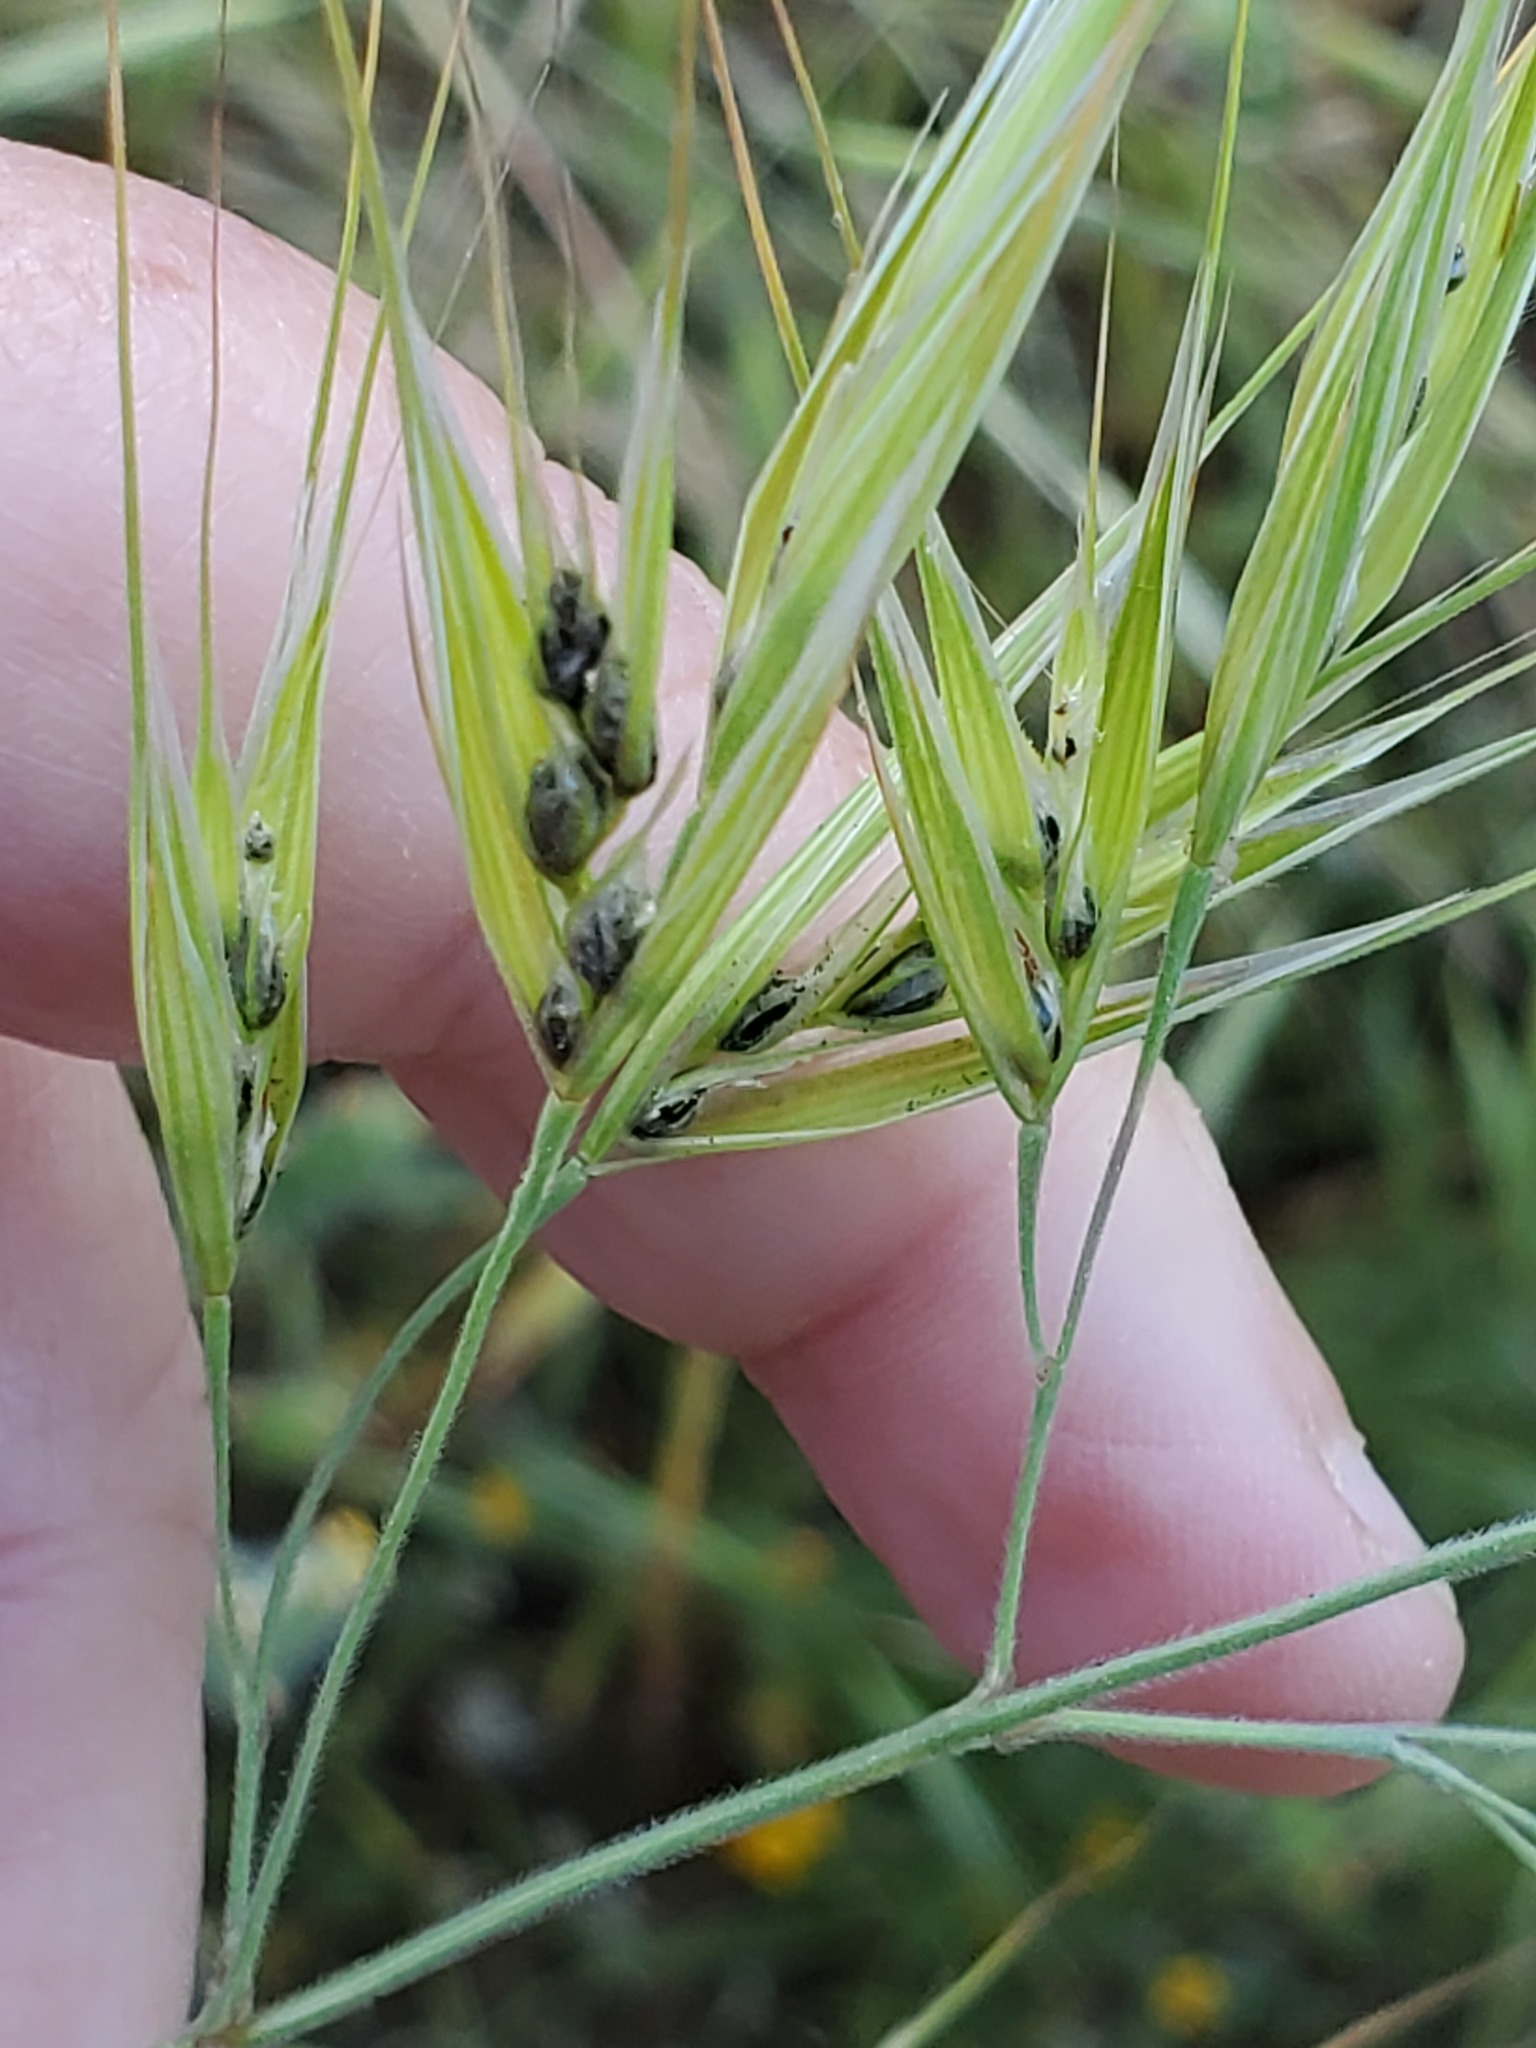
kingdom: Plantae
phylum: Tracheophyta
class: Liliopsida
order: Poales
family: Poaceae
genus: Bromus
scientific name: Bromus diandrus
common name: Ripgut brome
